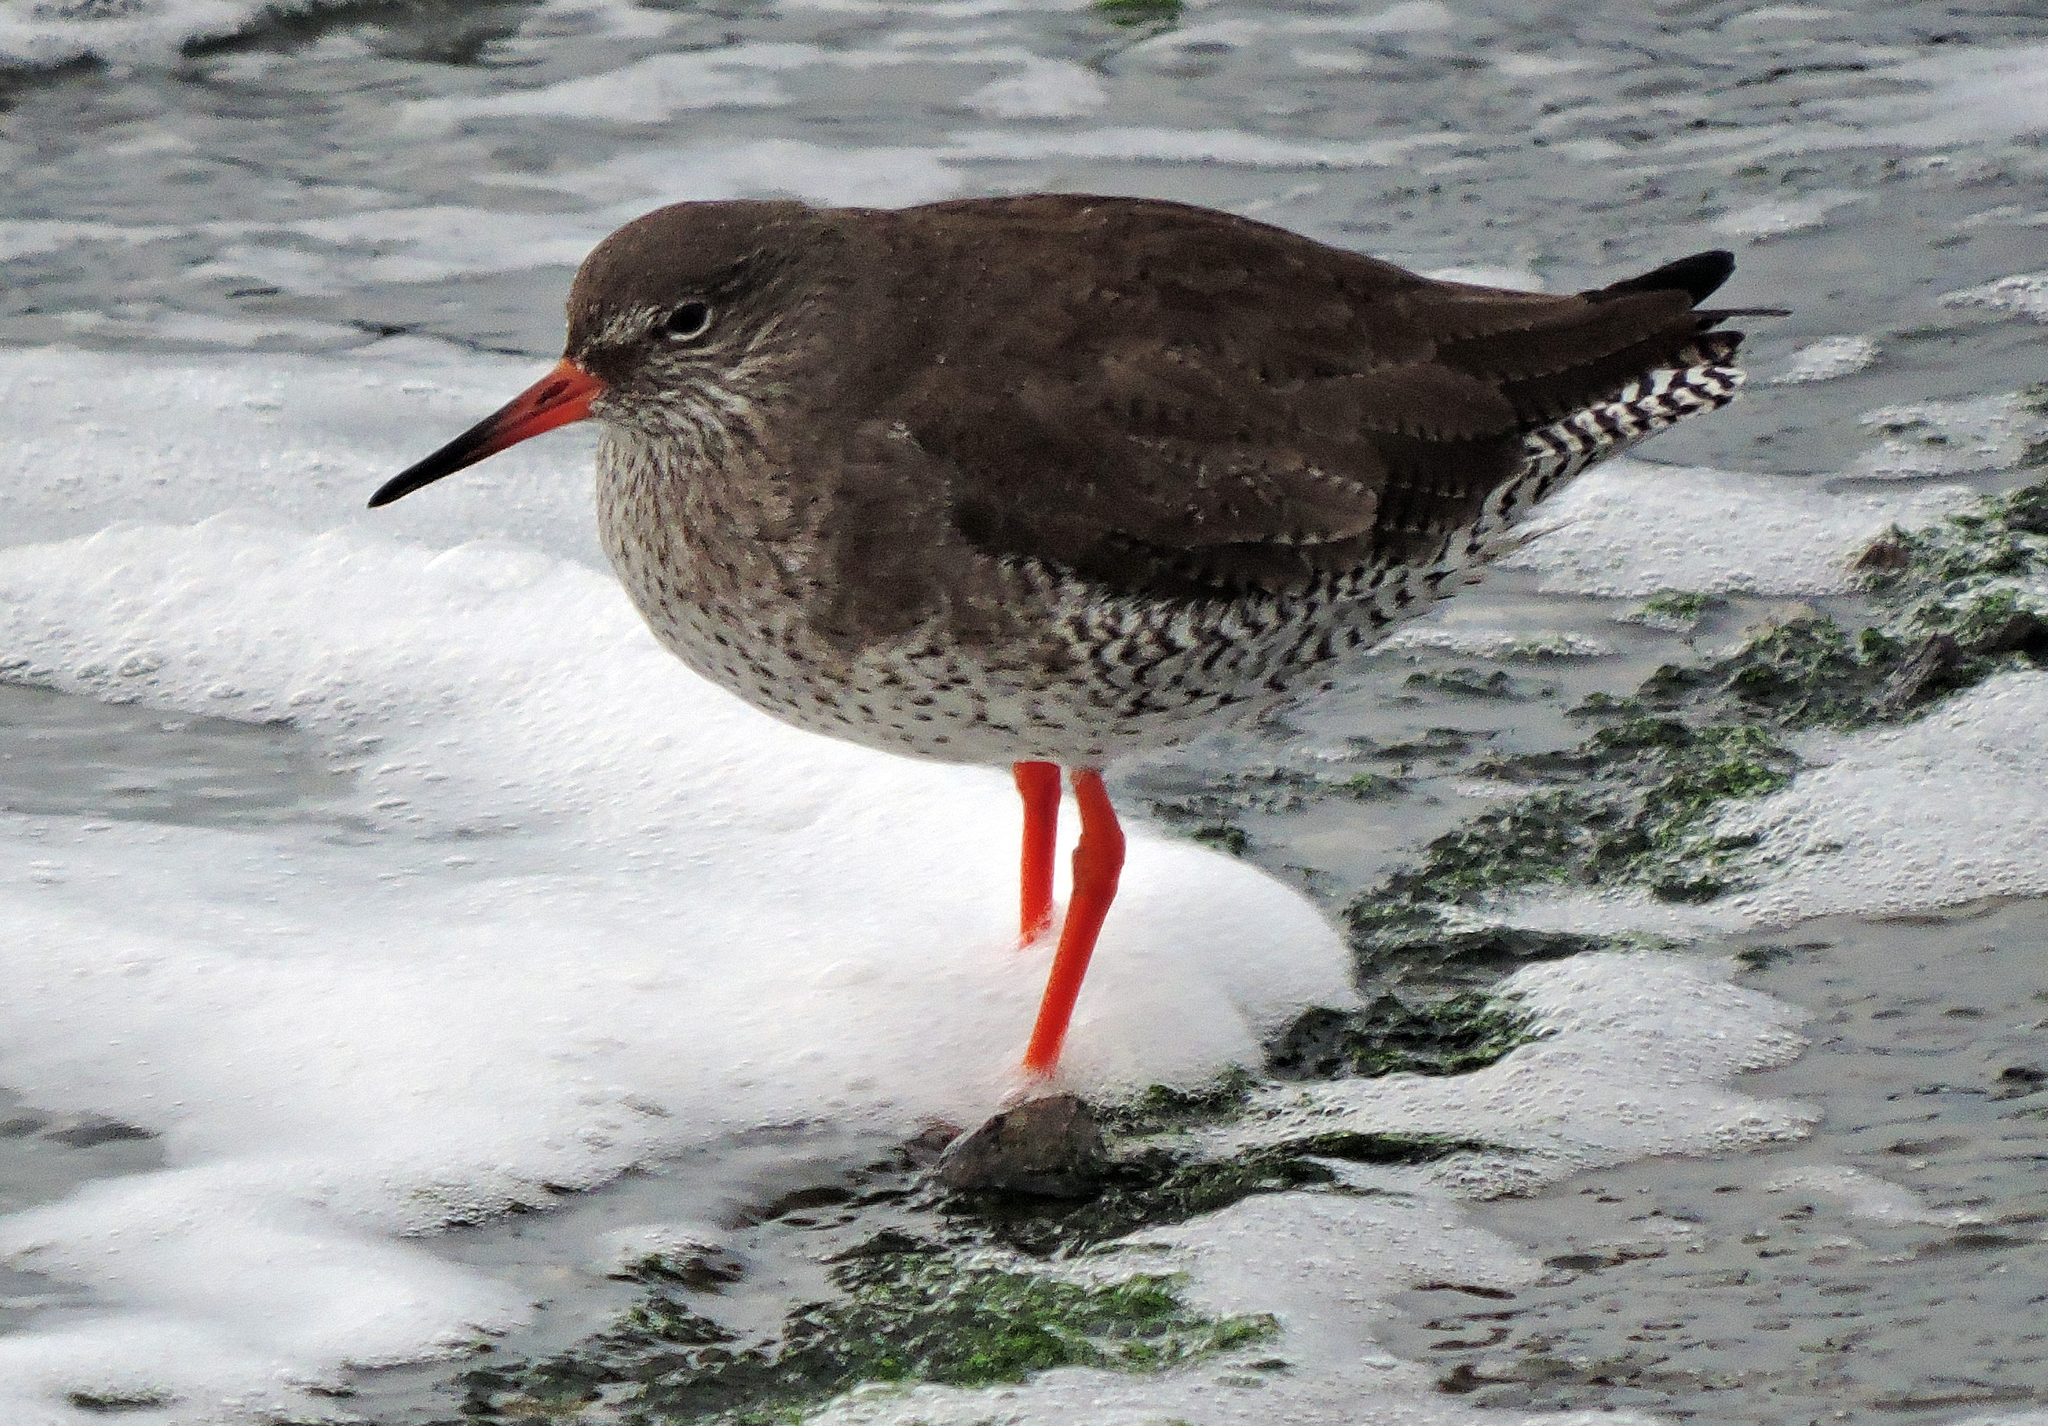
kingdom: Animalia
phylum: Chordata
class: Aves
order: Charadriiformes
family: Scolopacidae
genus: Tringa
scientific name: Tringa totanus
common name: Common redshank
